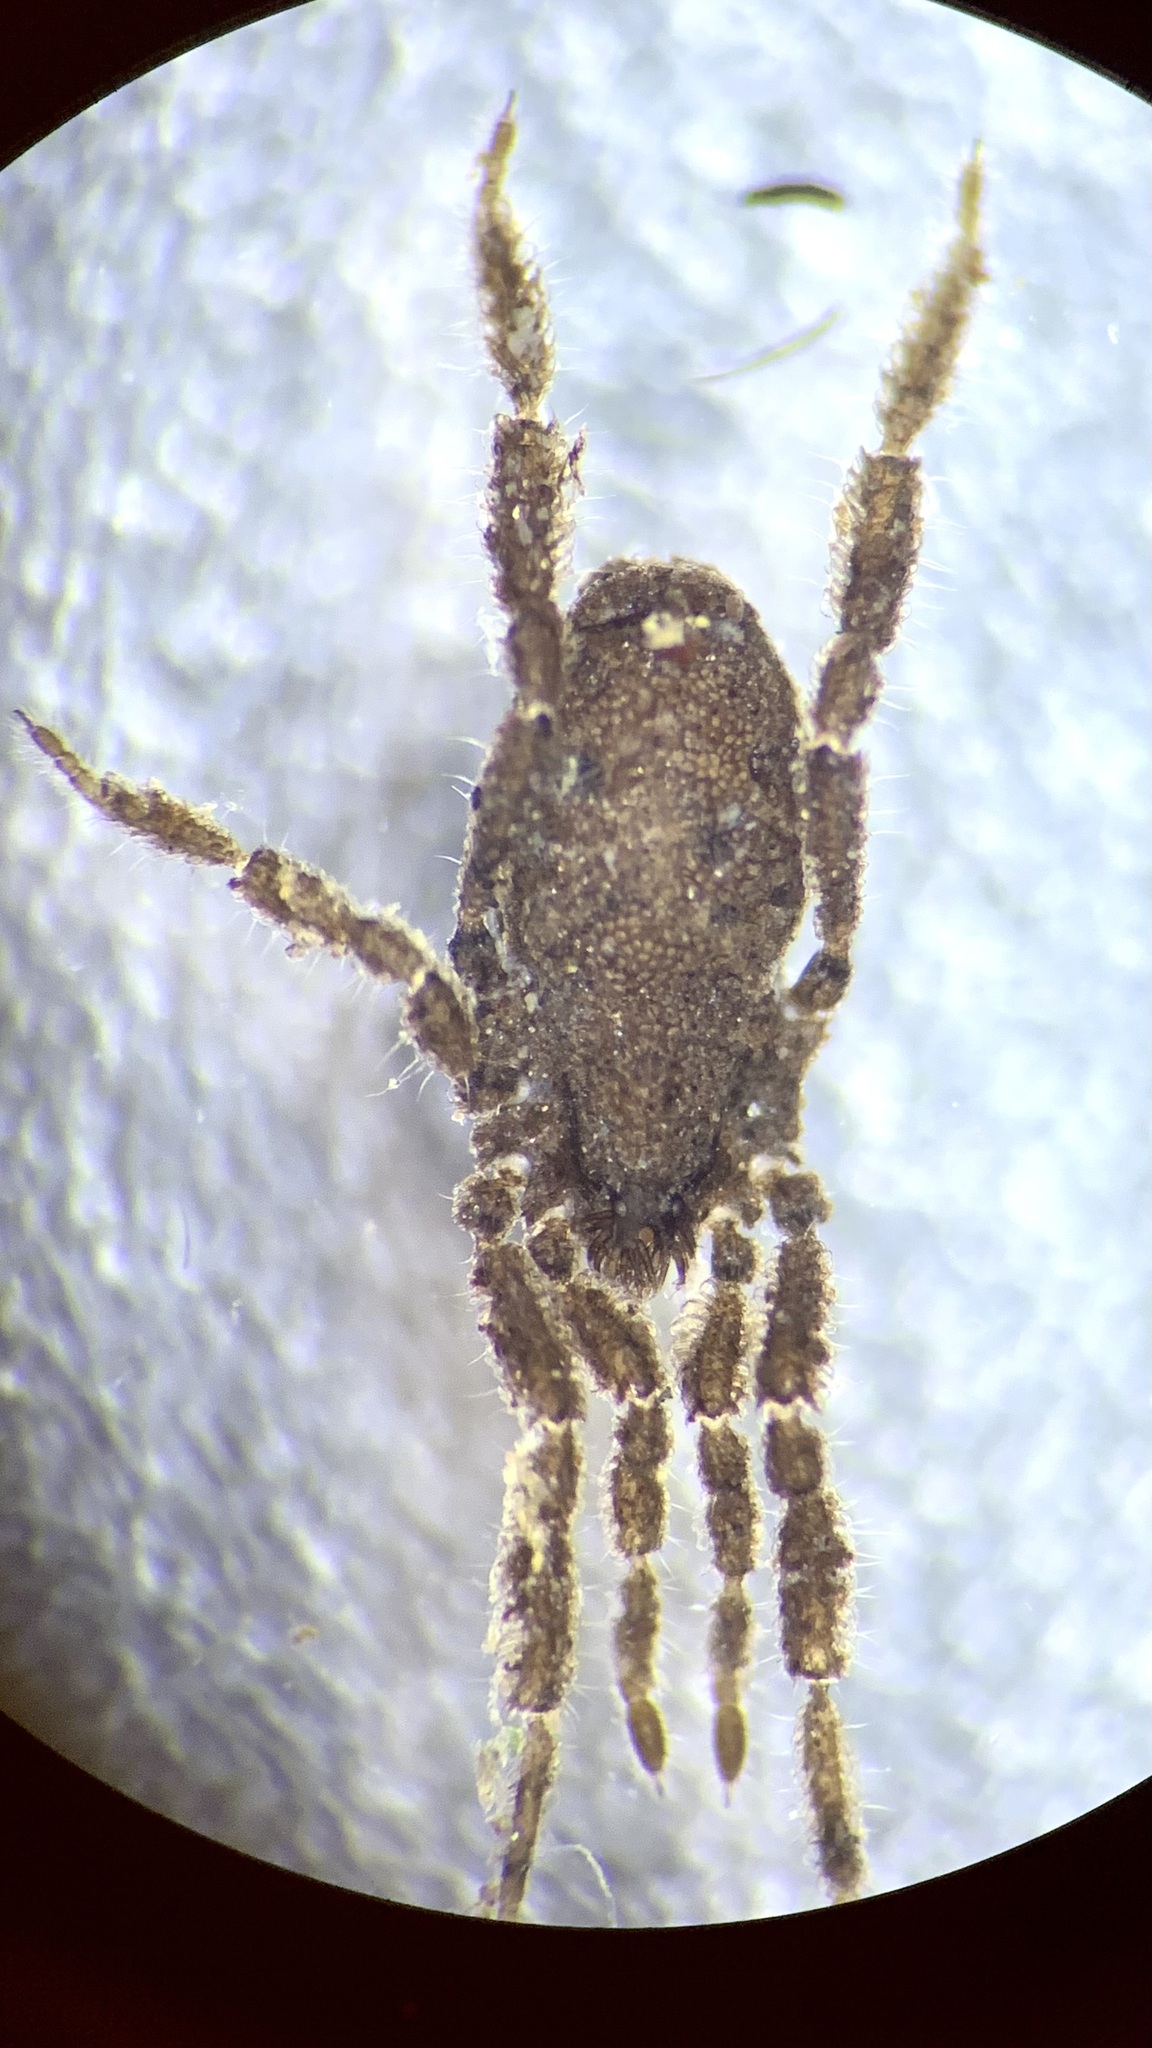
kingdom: Animalia
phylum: Arthropoda
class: Arachnida
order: Opiliones
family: Trogulidae
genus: Anelasmocephalus
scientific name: Anelasmocephalus cambridgei
